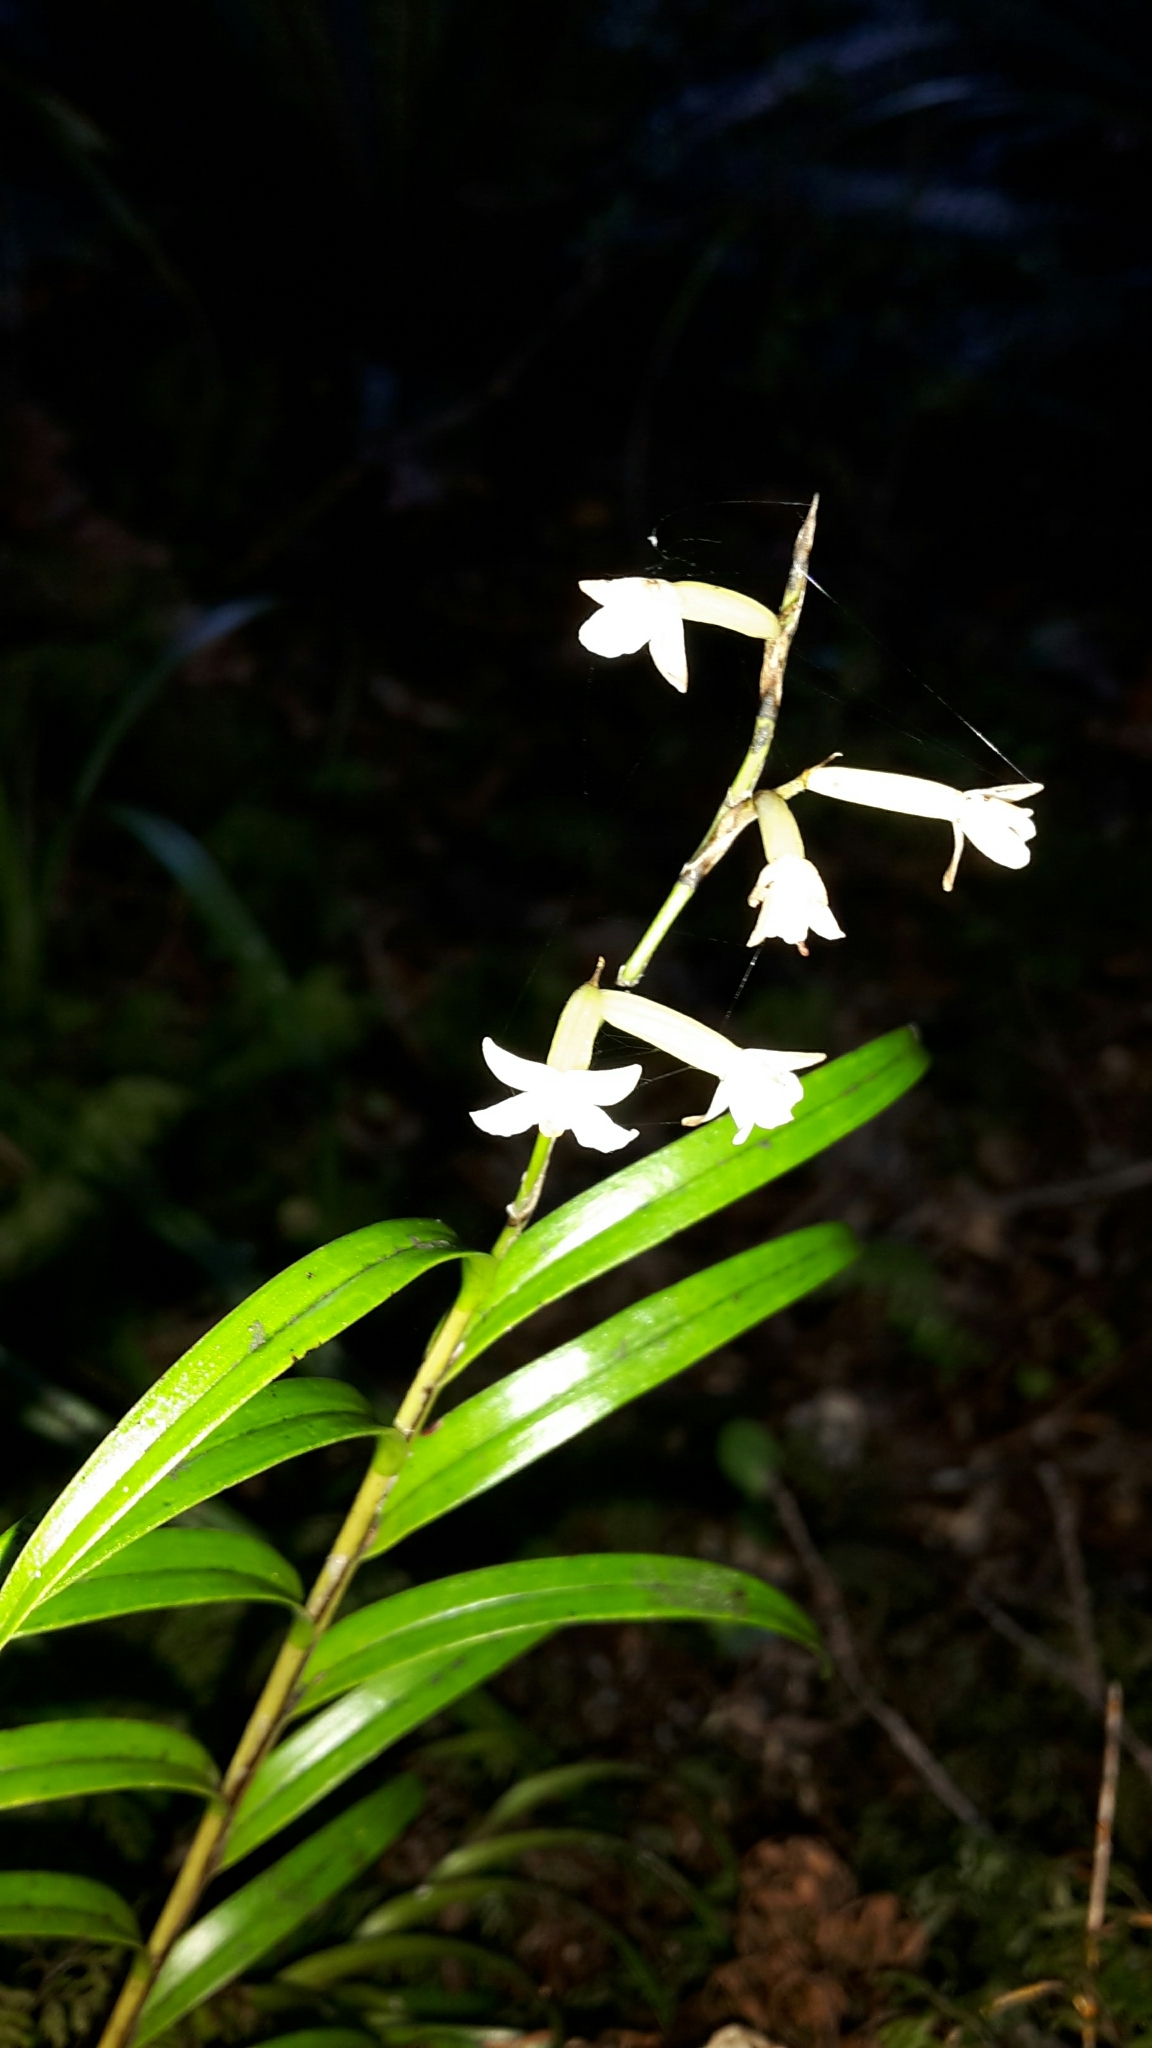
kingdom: Plantae
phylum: Tracheophyta
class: Liliopsida
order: Asparagales
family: Orchidaceae
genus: Earina
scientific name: Earina autumnalis
